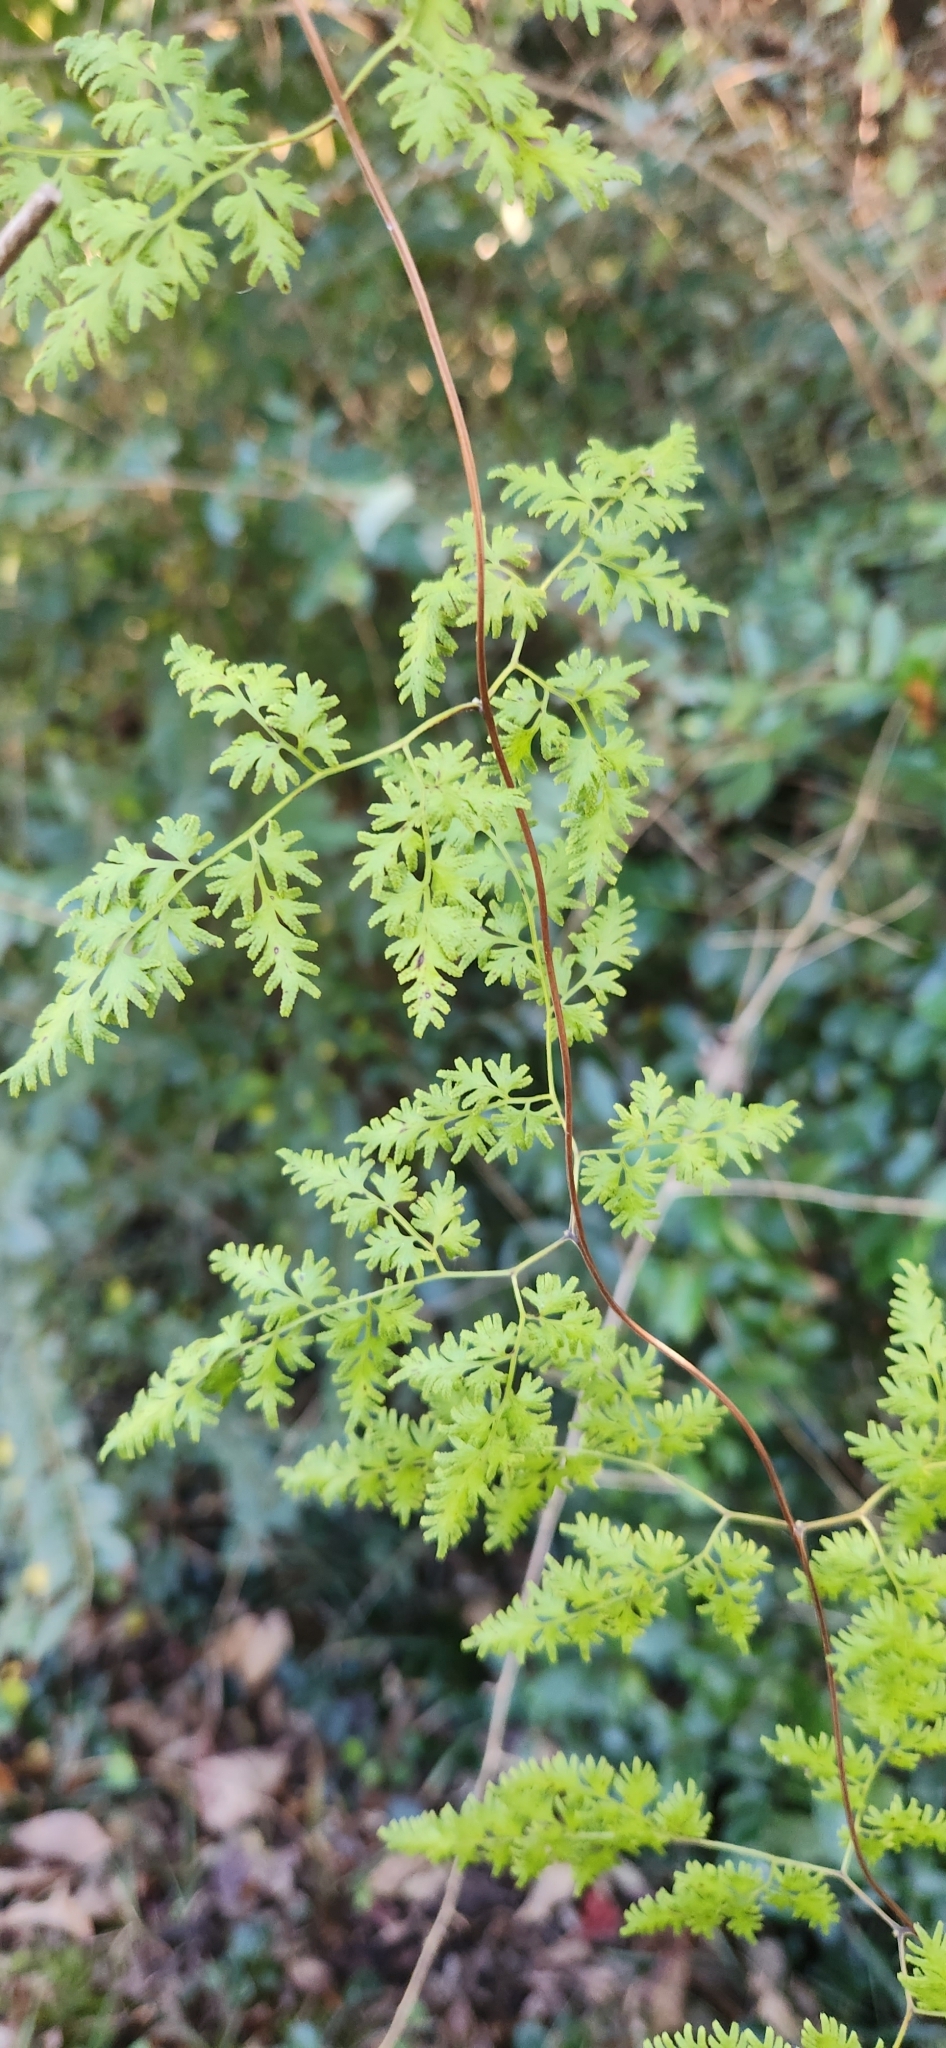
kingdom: Plantae
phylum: Tracheophyta
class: Polypodiopsida
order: Schizaeales
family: Lygodiaceae
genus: Lygodium
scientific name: Lygodium japonicum
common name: Japanese climbing fern
